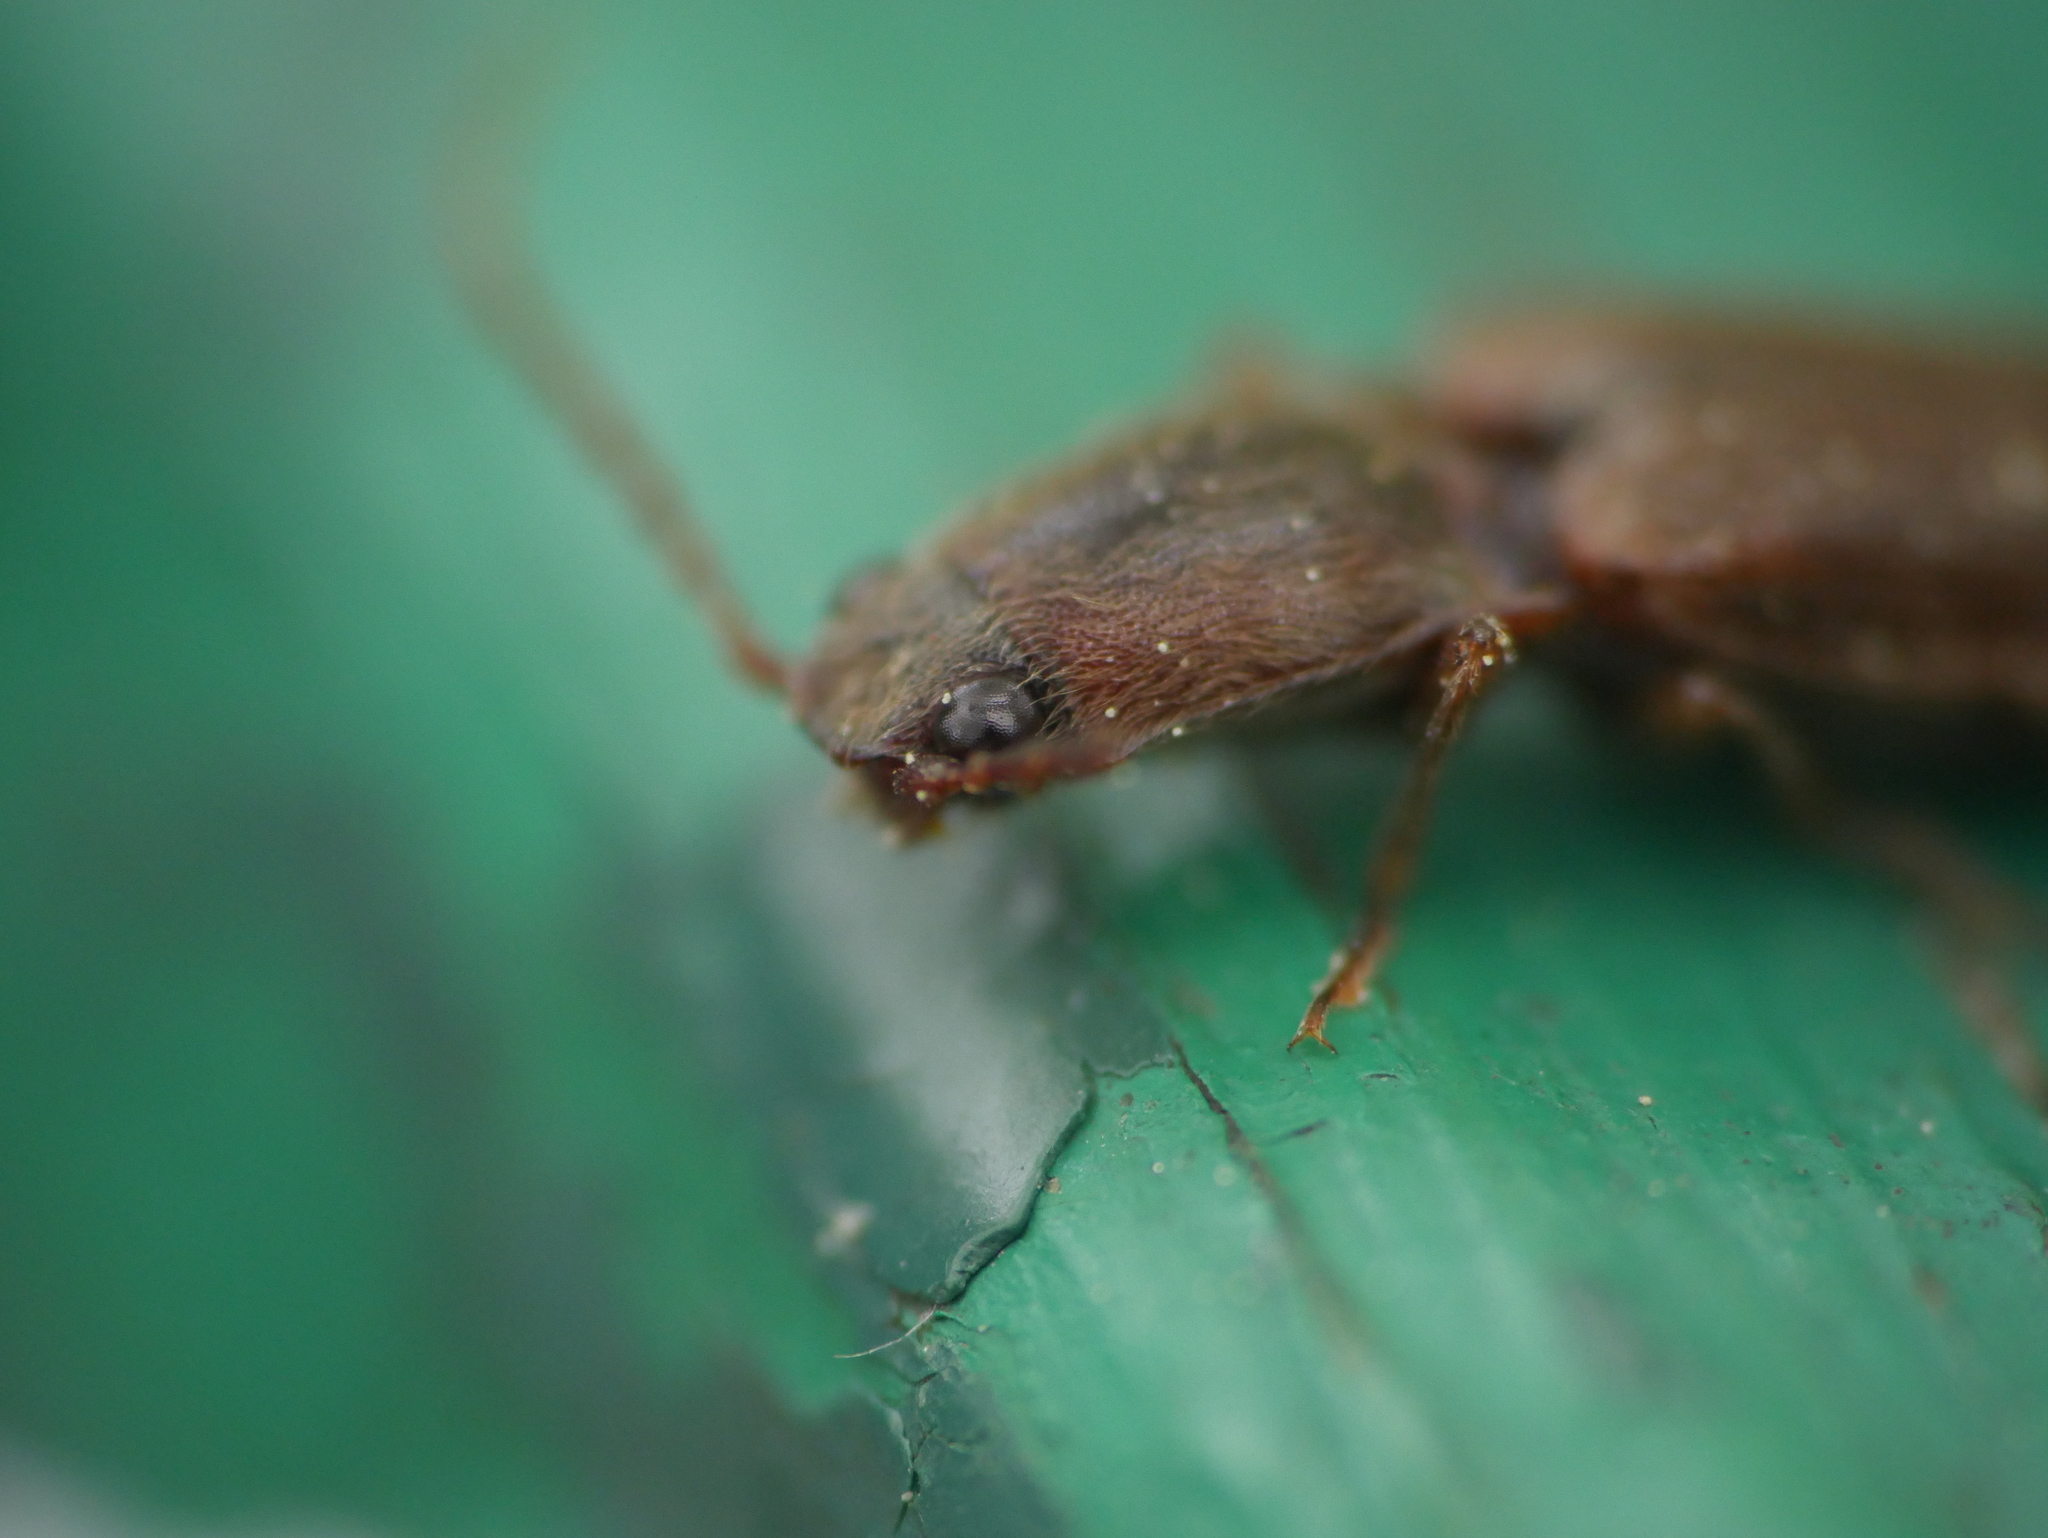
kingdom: Animalia
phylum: Arthropoda
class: Insecta
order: Coleoptera
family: Elateridae
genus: Athous
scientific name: Athous brightwelli
